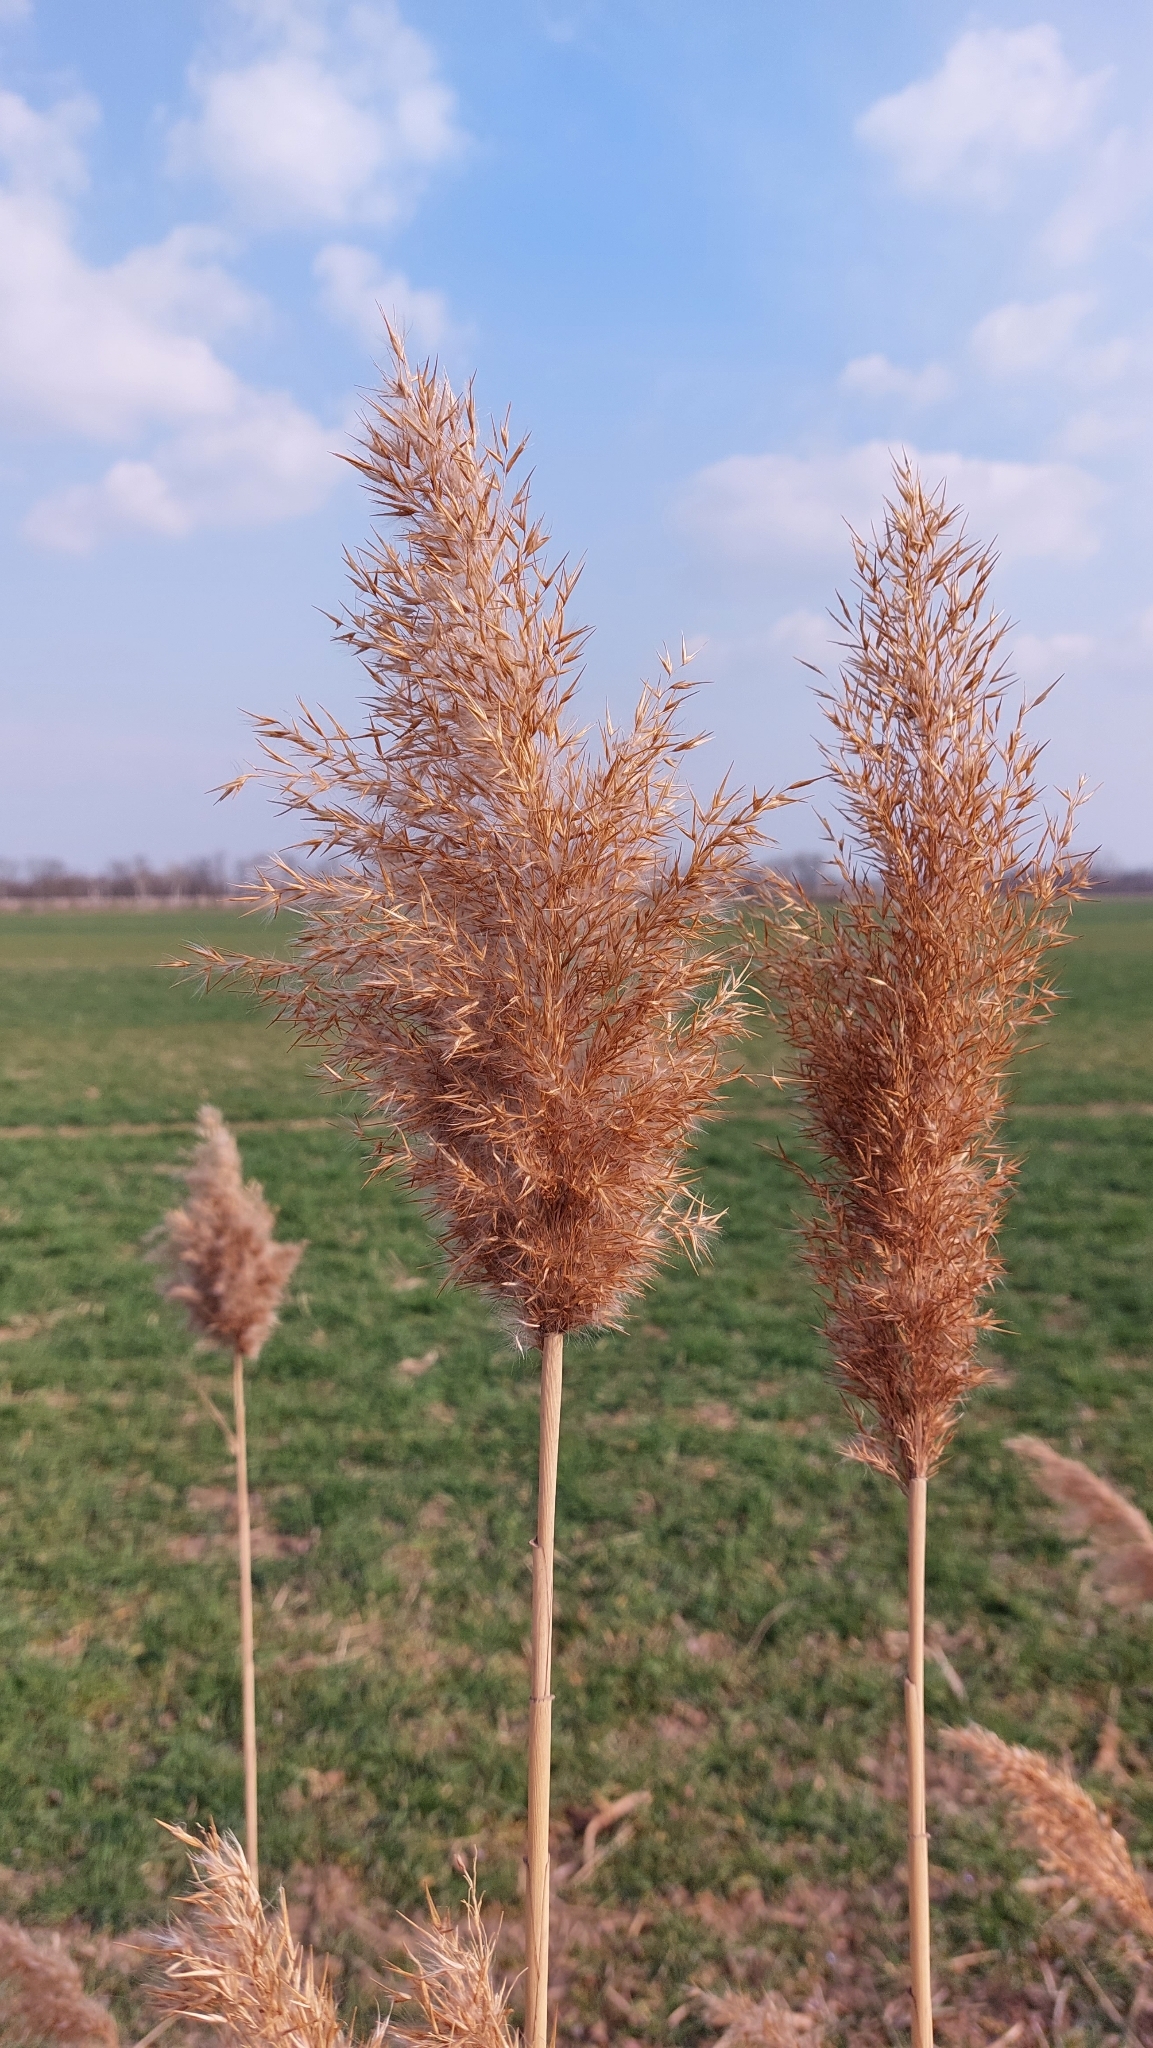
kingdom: Plantae
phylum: Tracheophyta
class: Liliopsida
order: Poales
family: Poaceae
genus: Phragmites
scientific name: Phragmites australis
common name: Common reed
